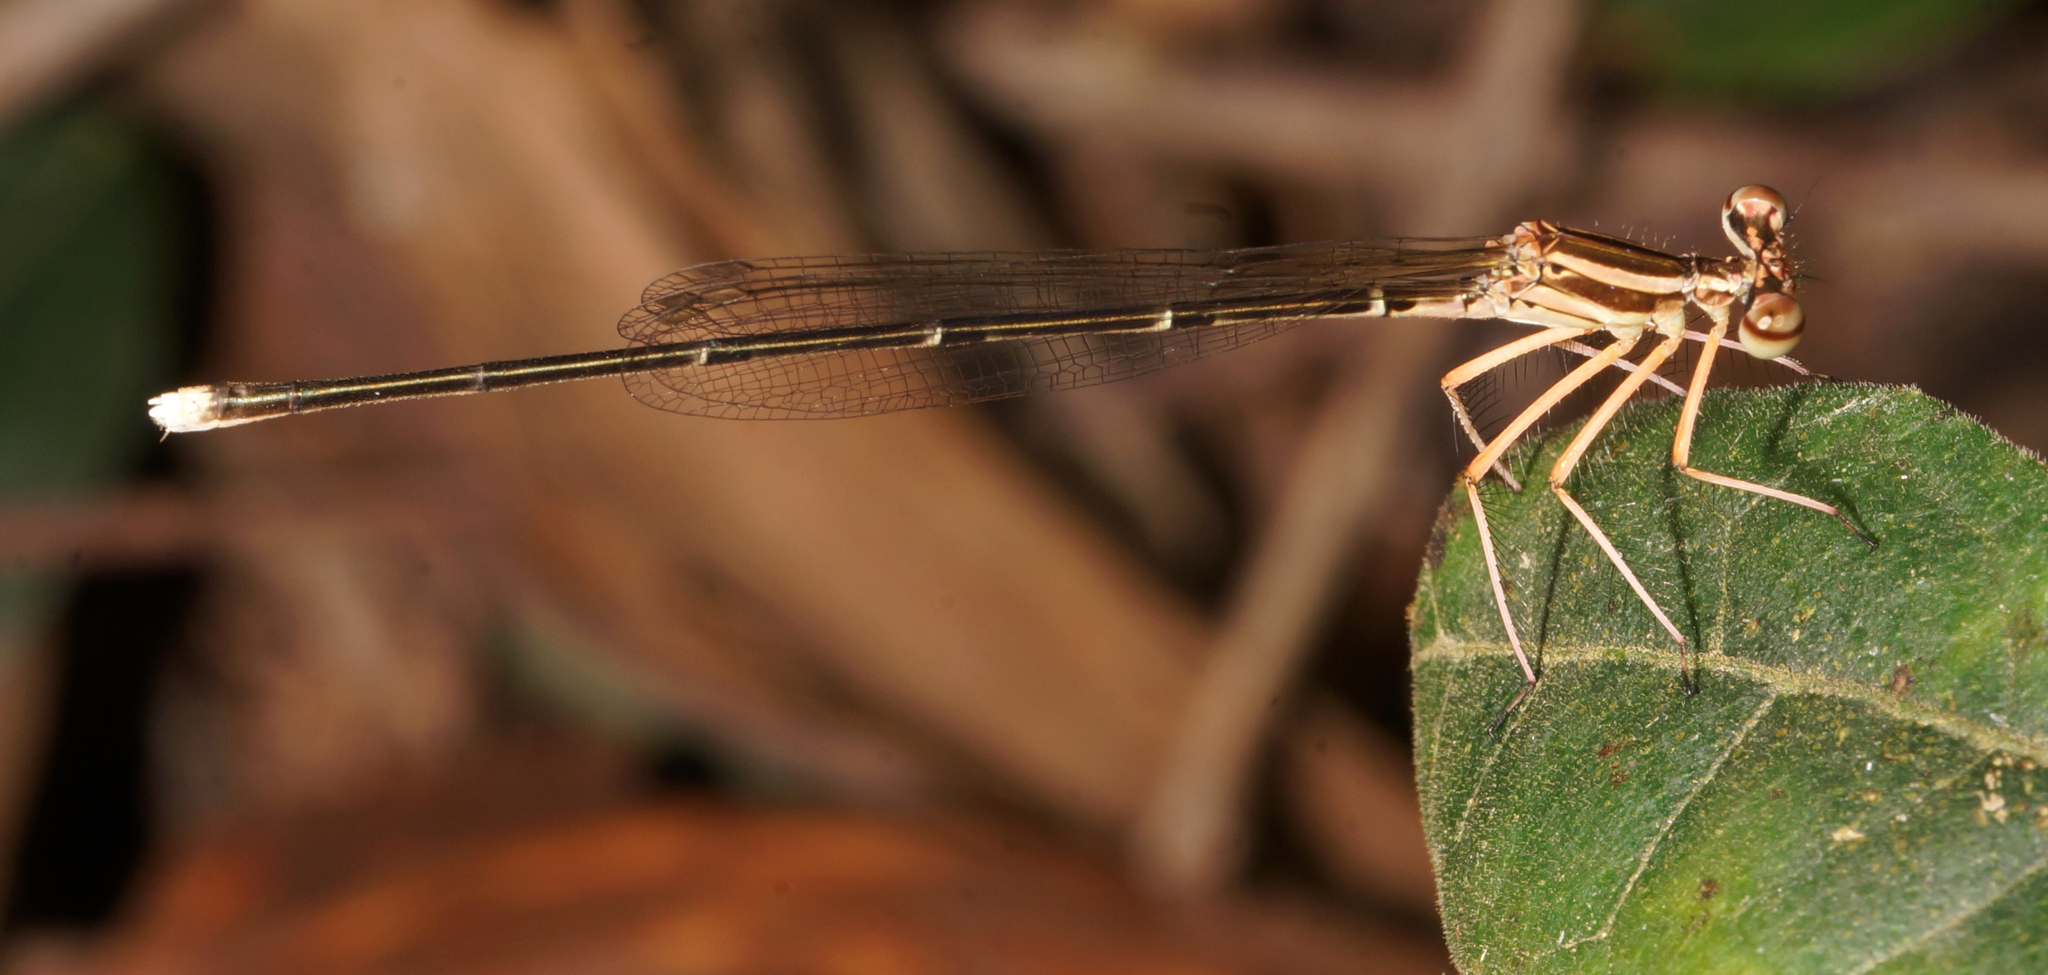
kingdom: Animalia
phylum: Arthropoda
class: Insecta
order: Odonata
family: Platycnemididae
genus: Pseudocopera
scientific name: Pseudocopera ciliata
